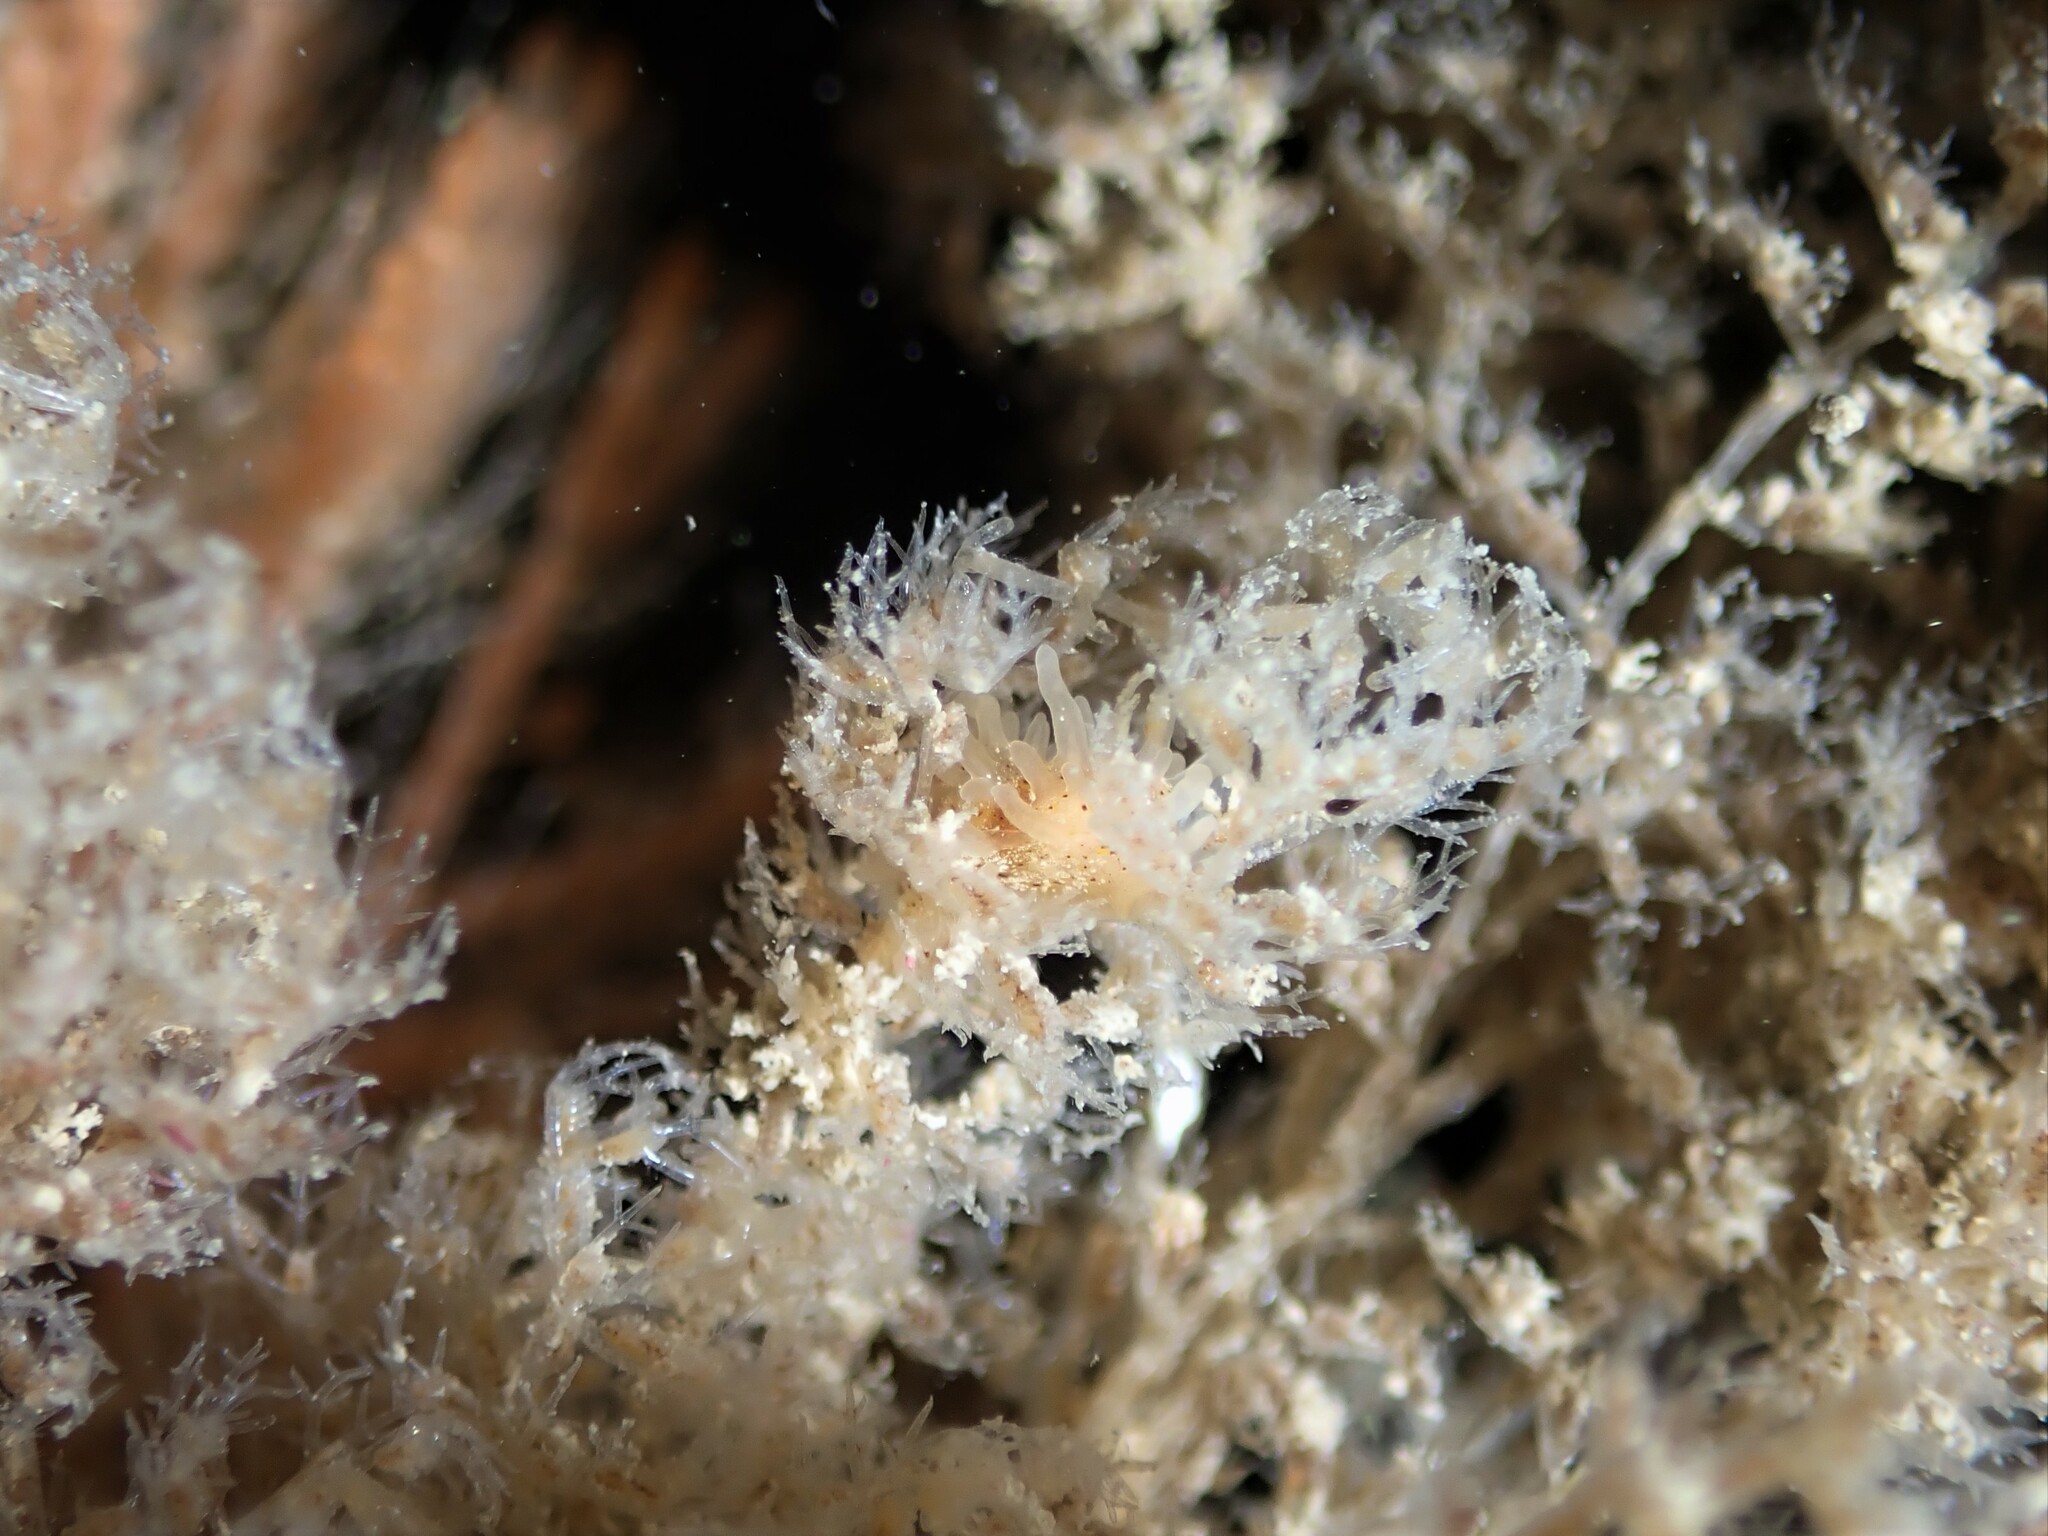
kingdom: Animalia
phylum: Mollusca
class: Gastropoda
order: Nudibranchia
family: Goniodorididae
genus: Okenia
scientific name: Okenia
